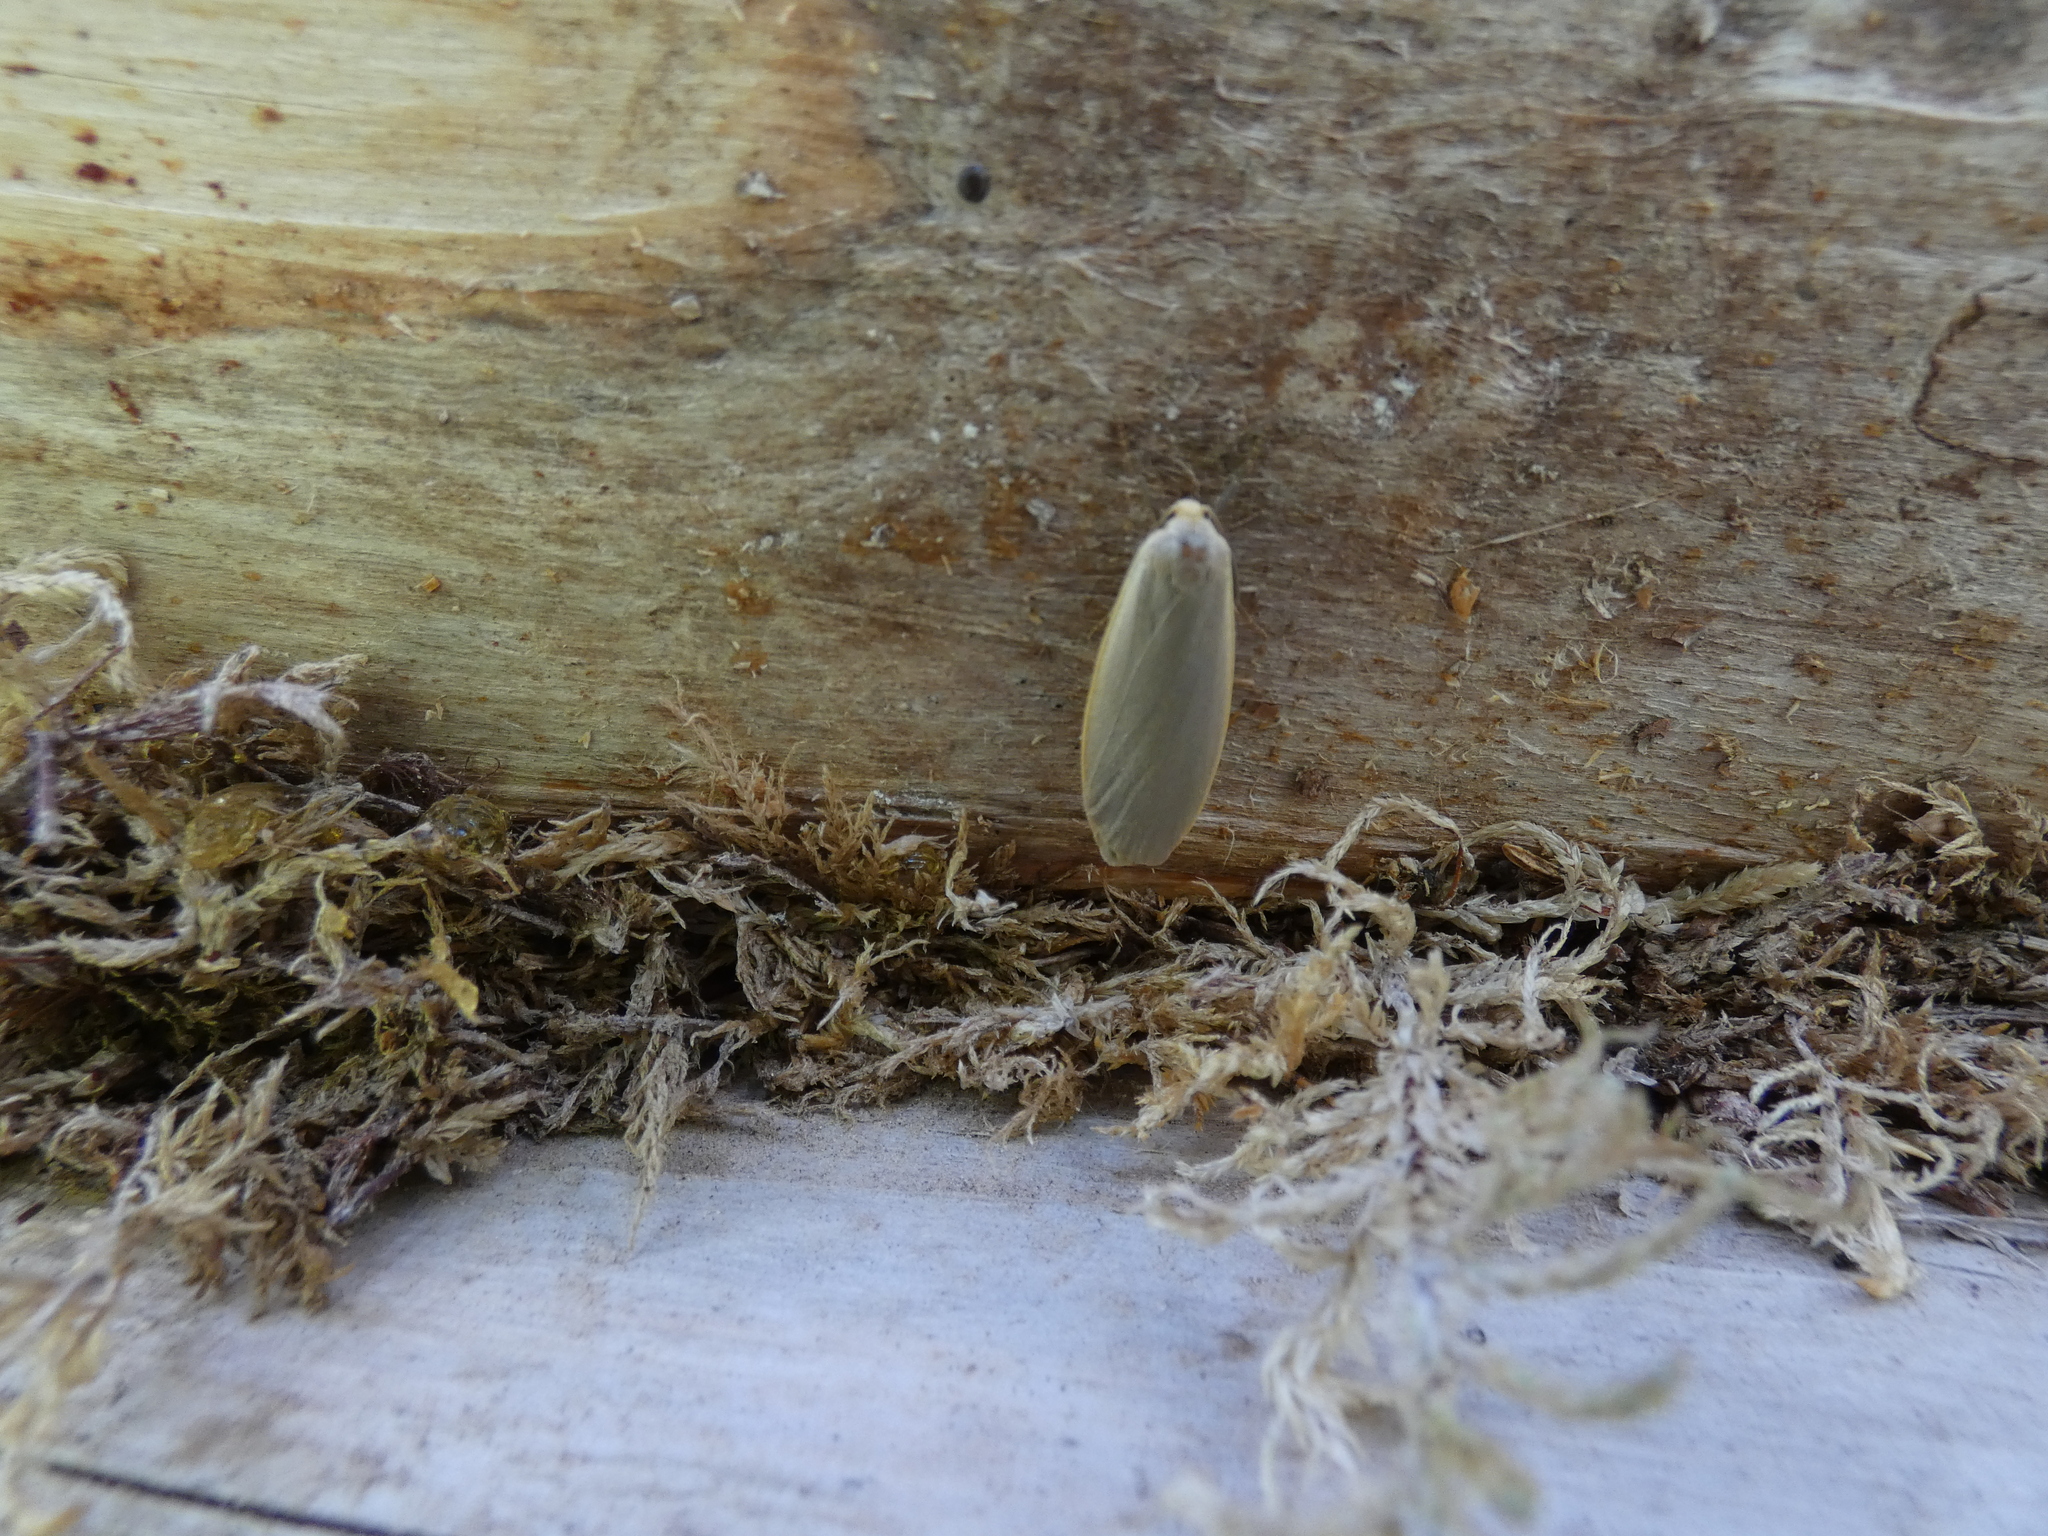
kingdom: Animalia
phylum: Arthropoda
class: Insecta
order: Lepidoptera
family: Erebidae
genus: Collita
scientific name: Collita griseola
